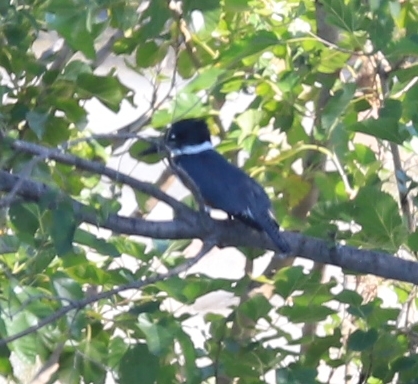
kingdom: Animalia
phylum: Chordata
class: Aves
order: Coraciiformes
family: Alcedinidae
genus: Megaceryle
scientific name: Megaceryle alcyon
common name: Belted kingfisher
